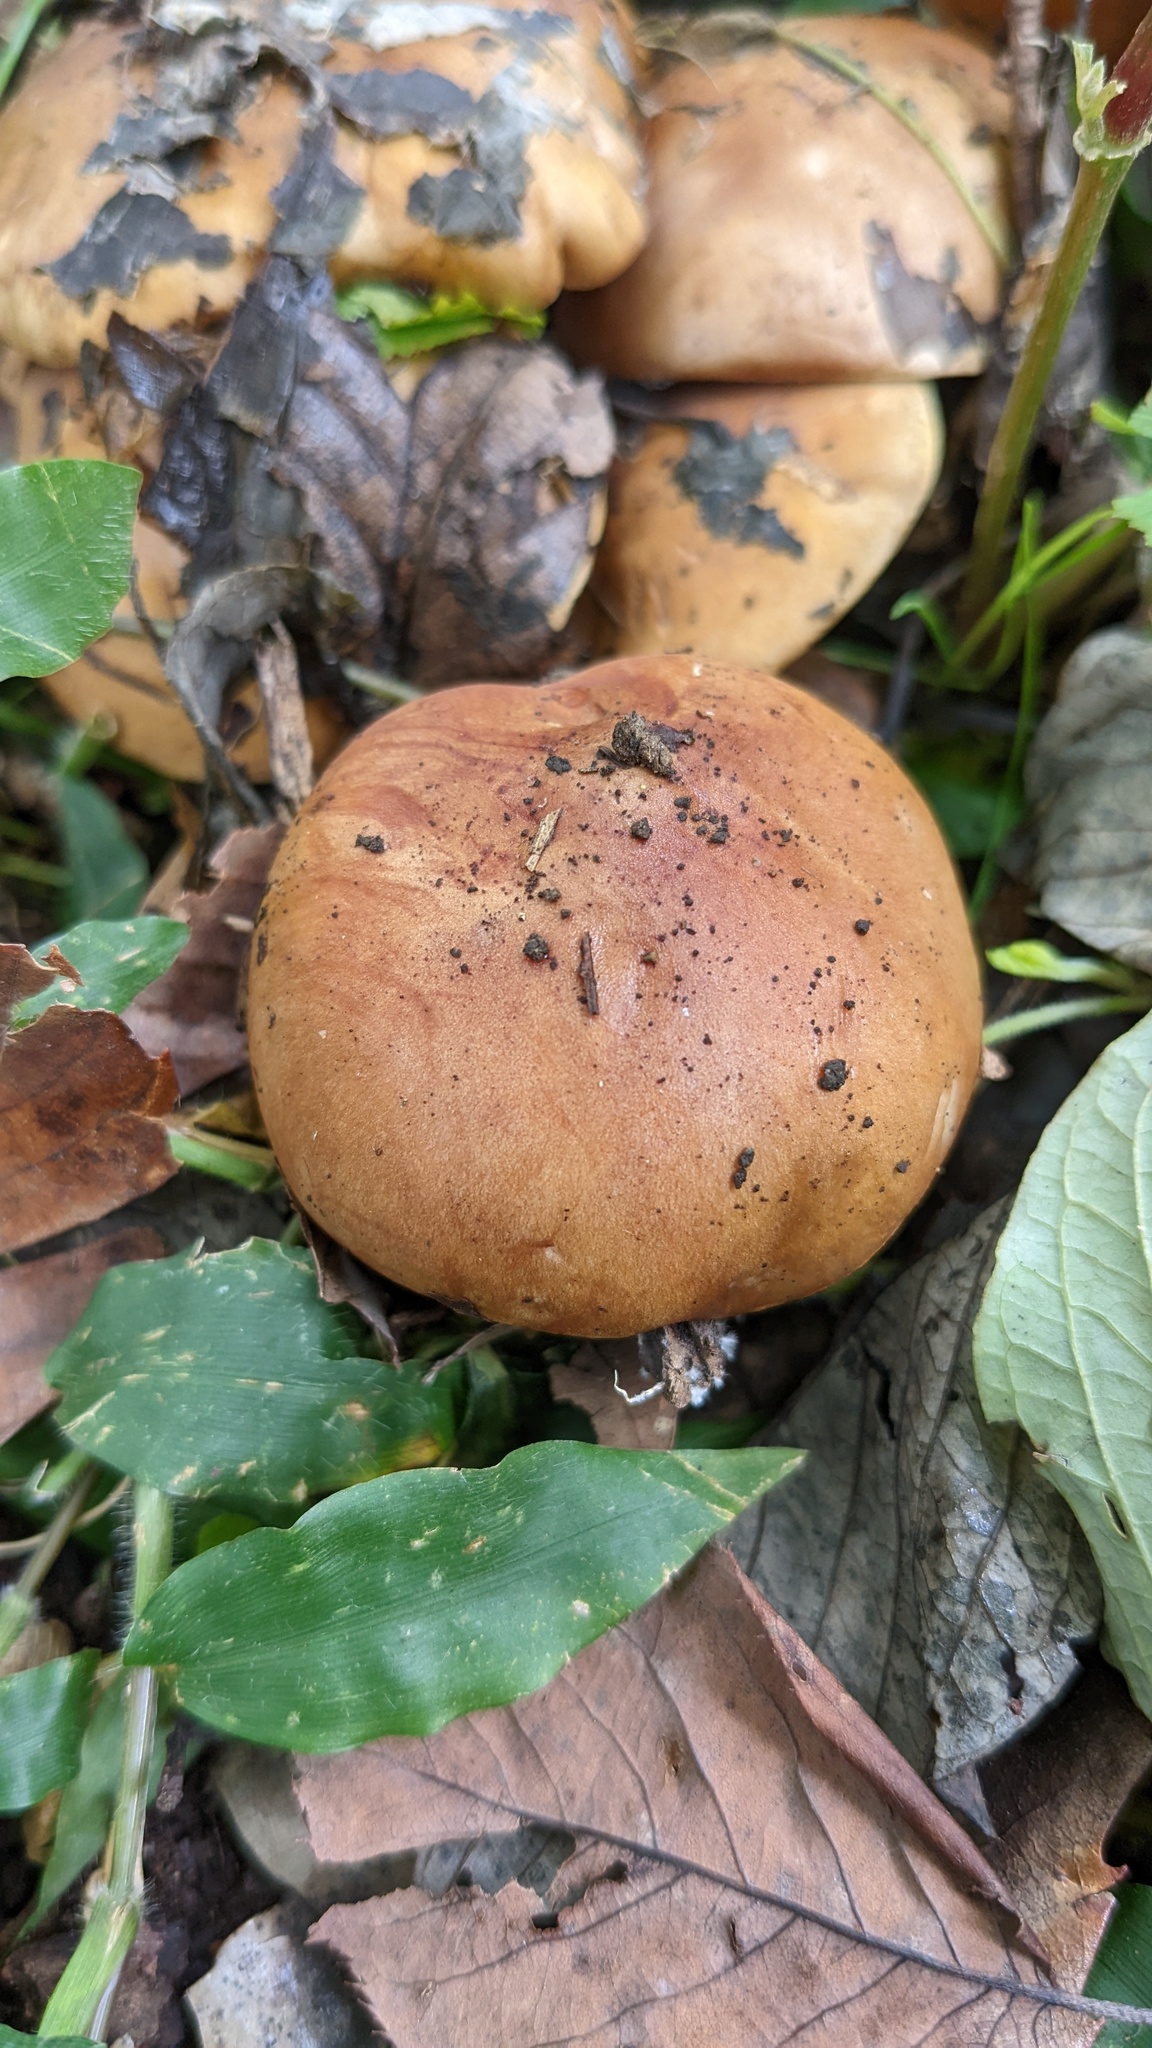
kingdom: Fungi
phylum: Basidiomycota
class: Agaricomycetes
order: Agaricales
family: Tricholomataceae
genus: Tricholosporum
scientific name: Tricholosporum porphyrophyllum
